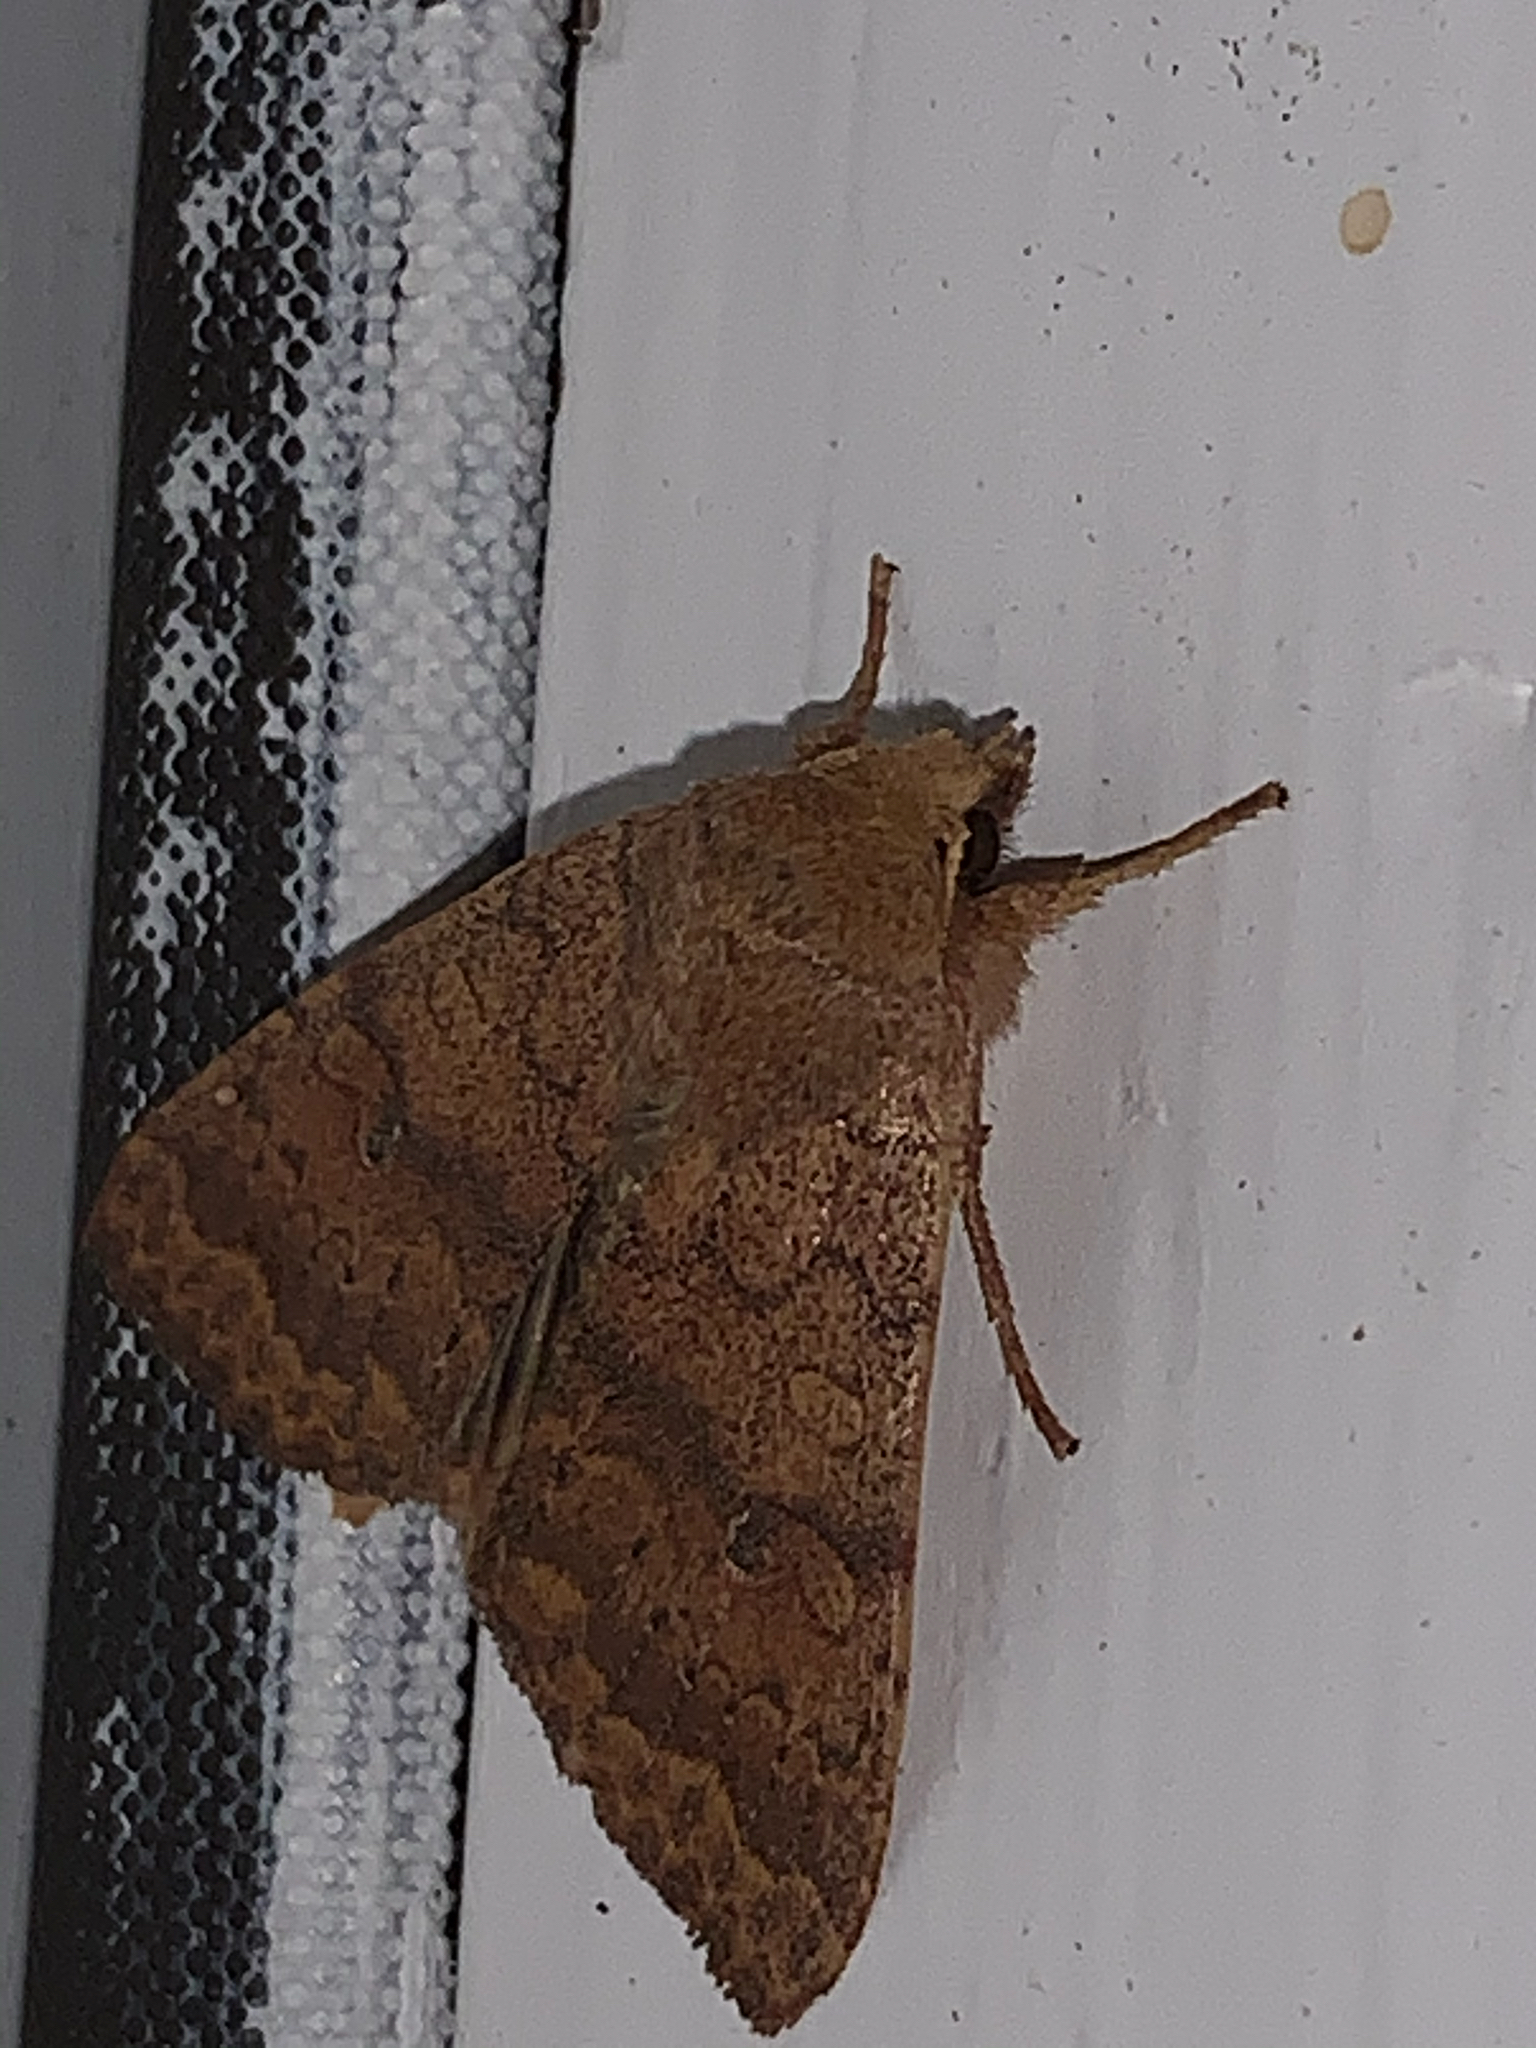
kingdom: Animalia
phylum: Arthropoda
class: Insecta
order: Lepidoptera
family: Noctuidae
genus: Agrochola
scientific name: Agrochola bicolorago
